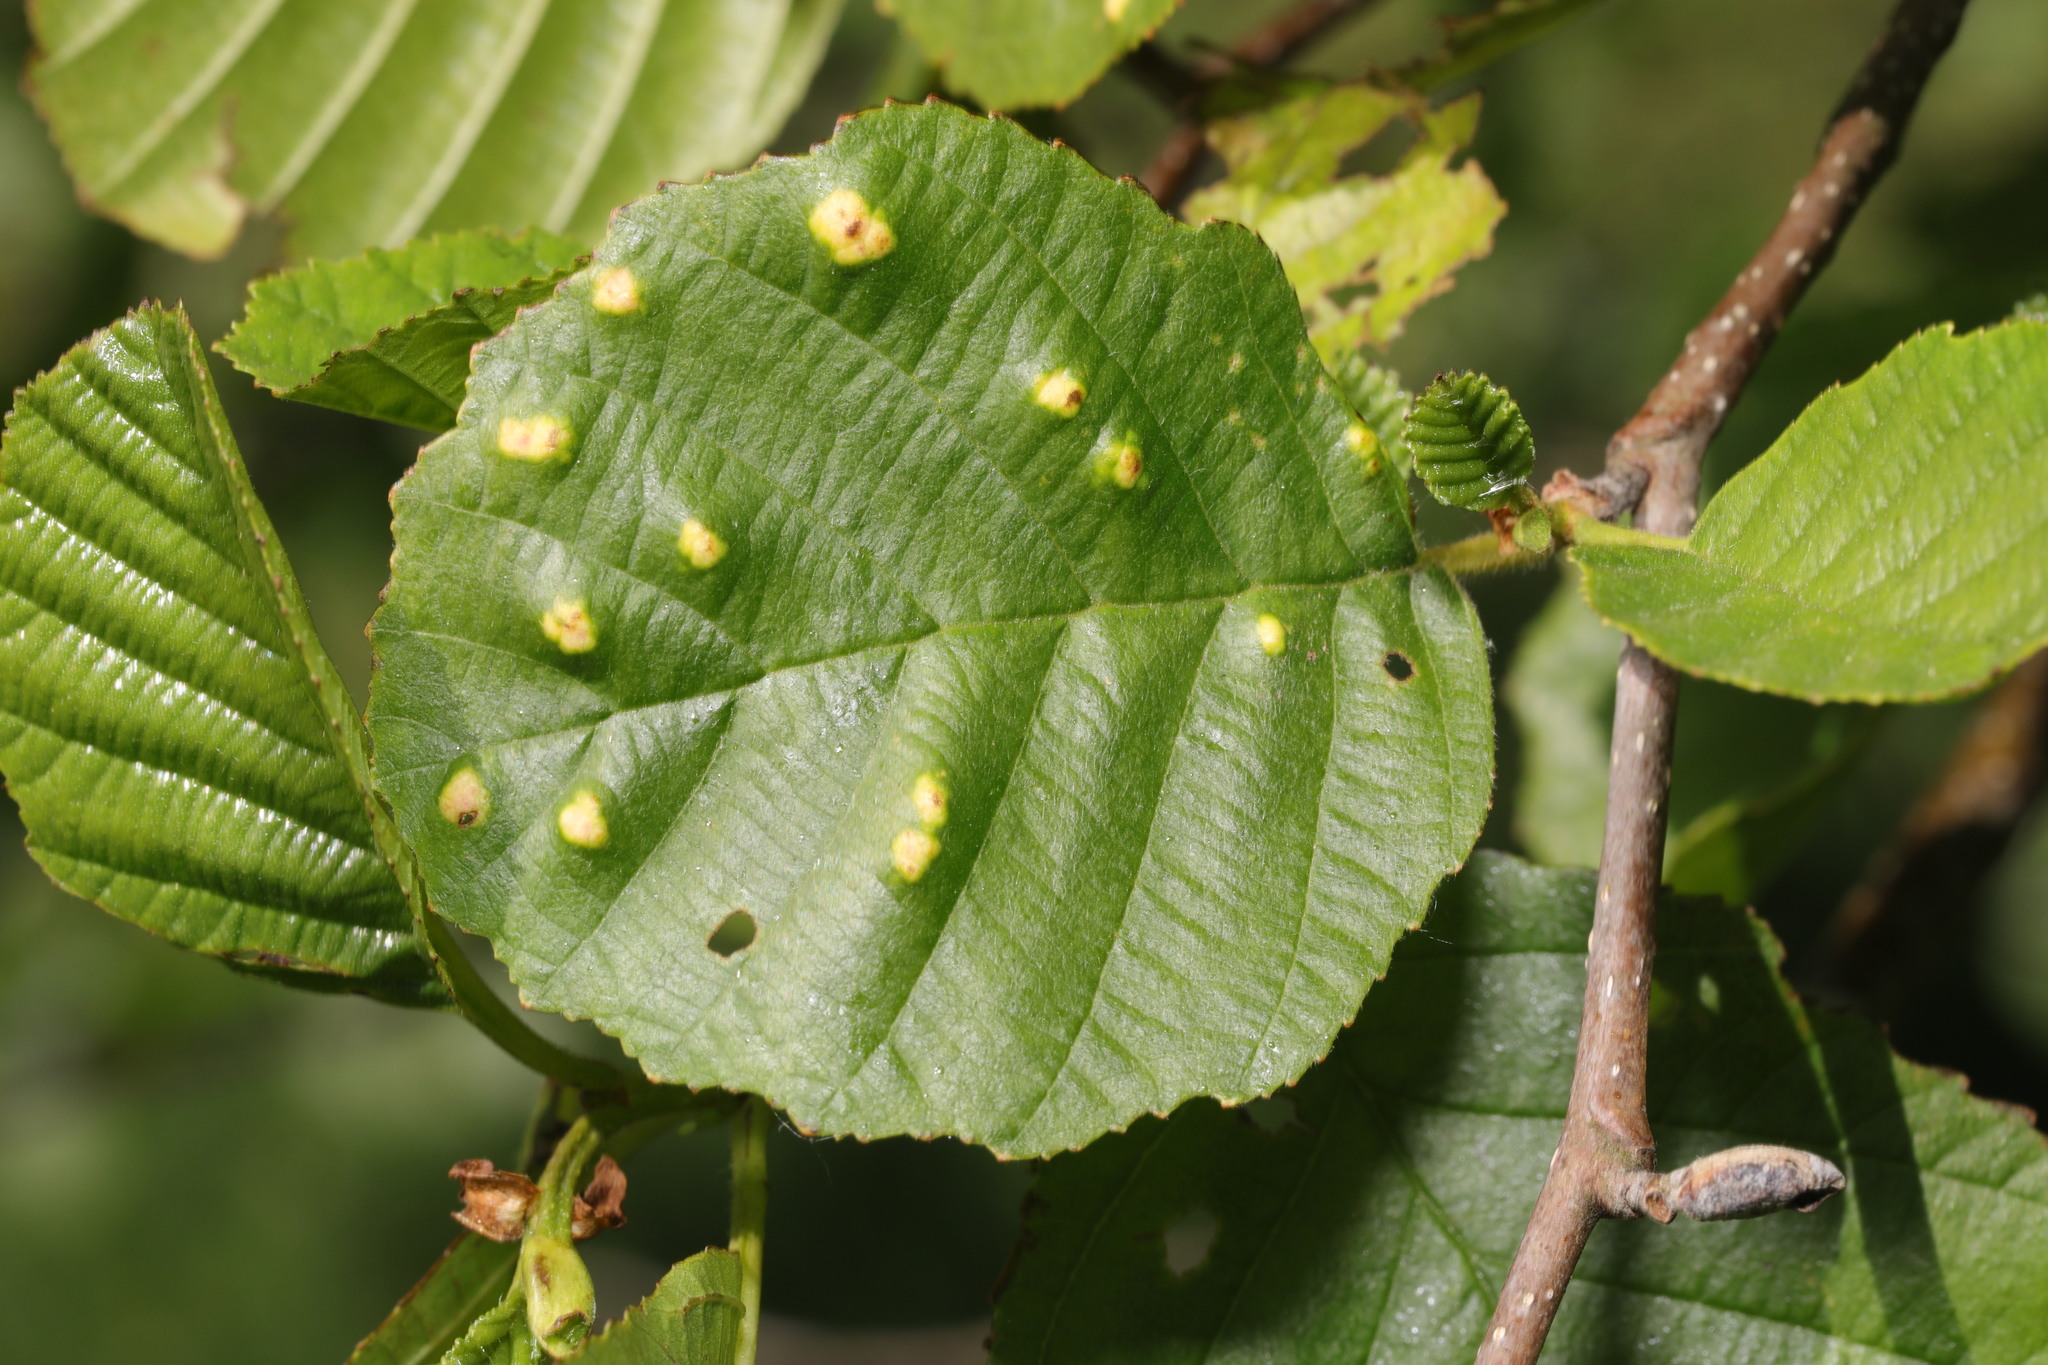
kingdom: Animalia
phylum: Arthropoda
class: Arachnida
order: Trombidiformes
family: Eriophyidae
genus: Acalitus
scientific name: Acalitus brevitarsus
